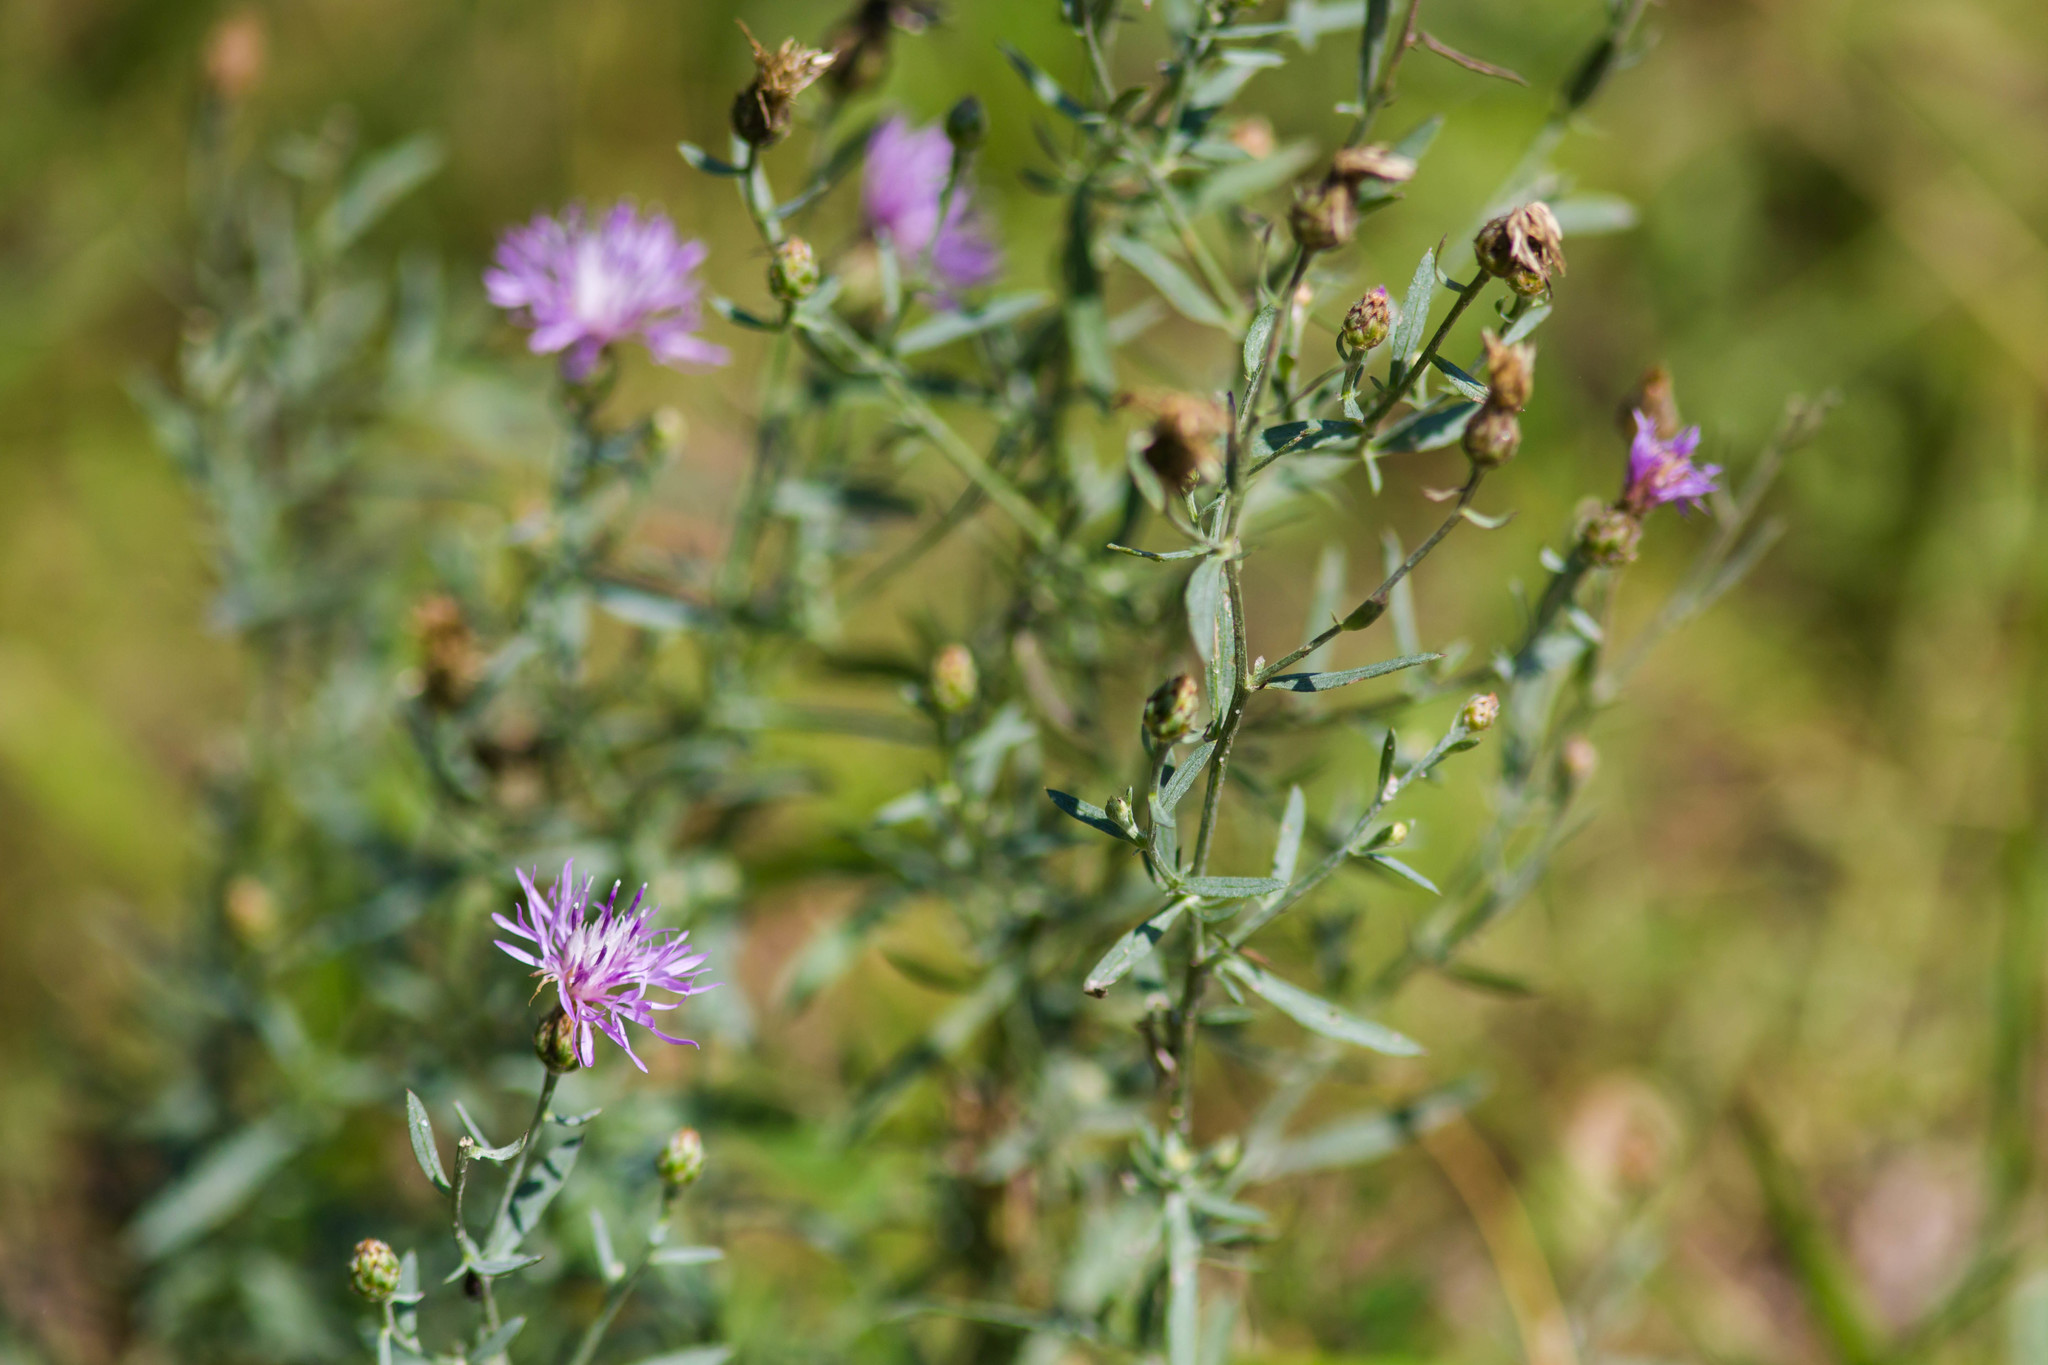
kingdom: Plantae
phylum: Tracheophyta
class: Magnoliopsida
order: Asterales
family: Asteraceae
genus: Centaurea
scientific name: Centaurea australis
